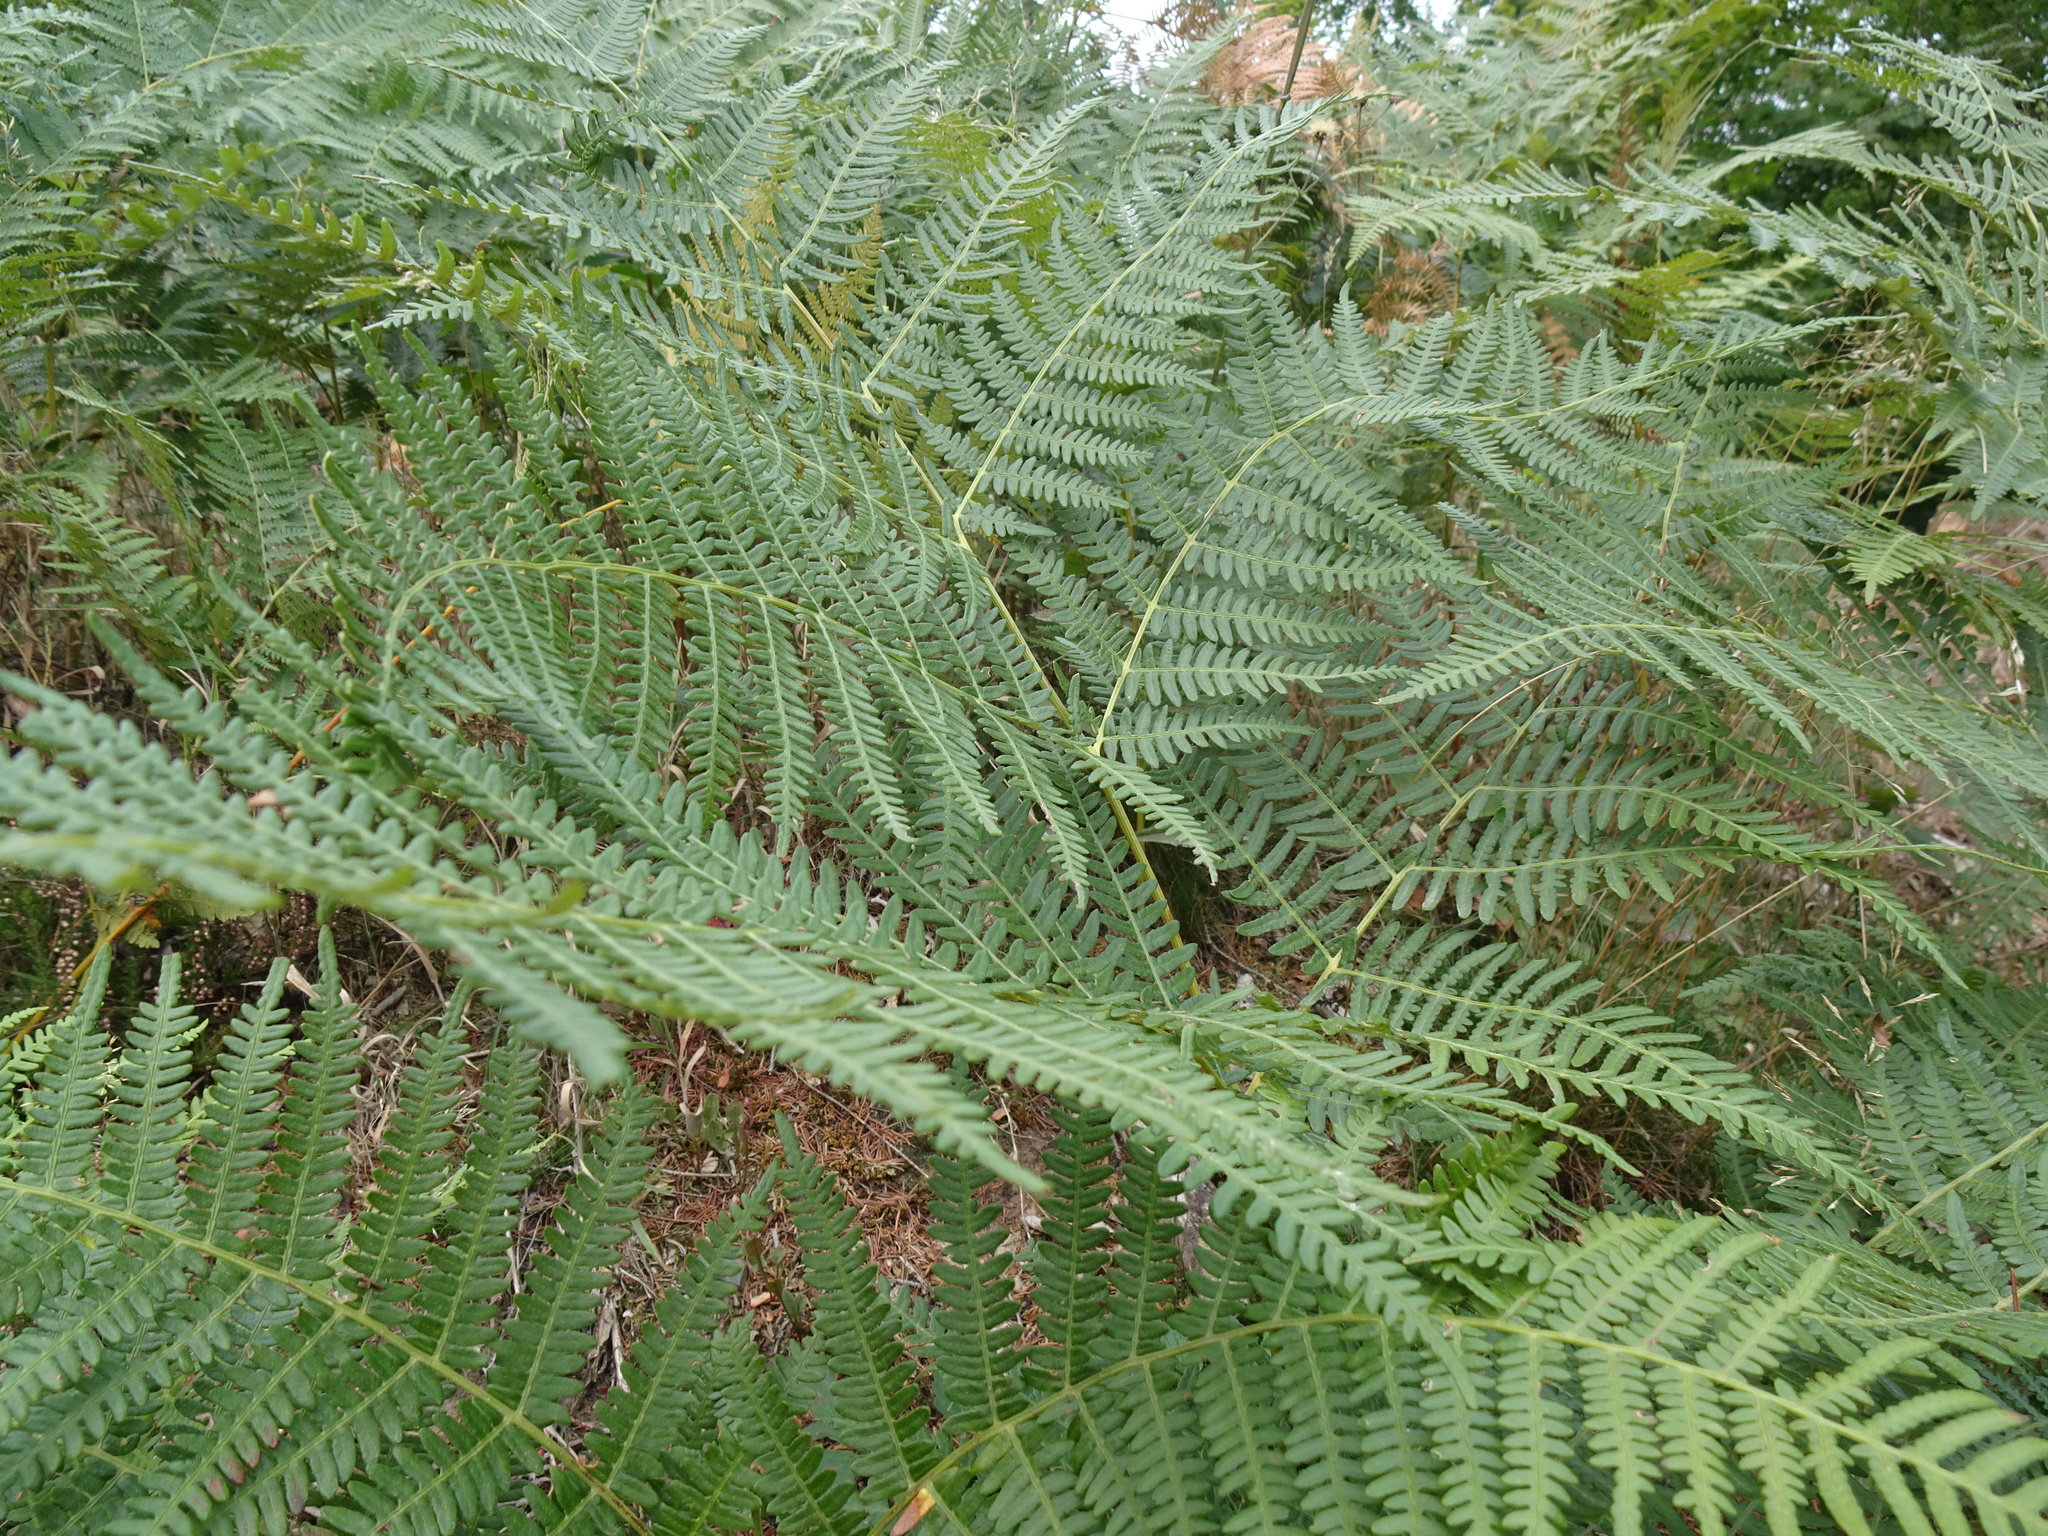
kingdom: Plantae
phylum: Tracheophyta
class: Polypodiopsida
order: Polypodiales
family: Dennstaedtiaceae
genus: Pteridium
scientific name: Pteridium aquilinum
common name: Bracken
